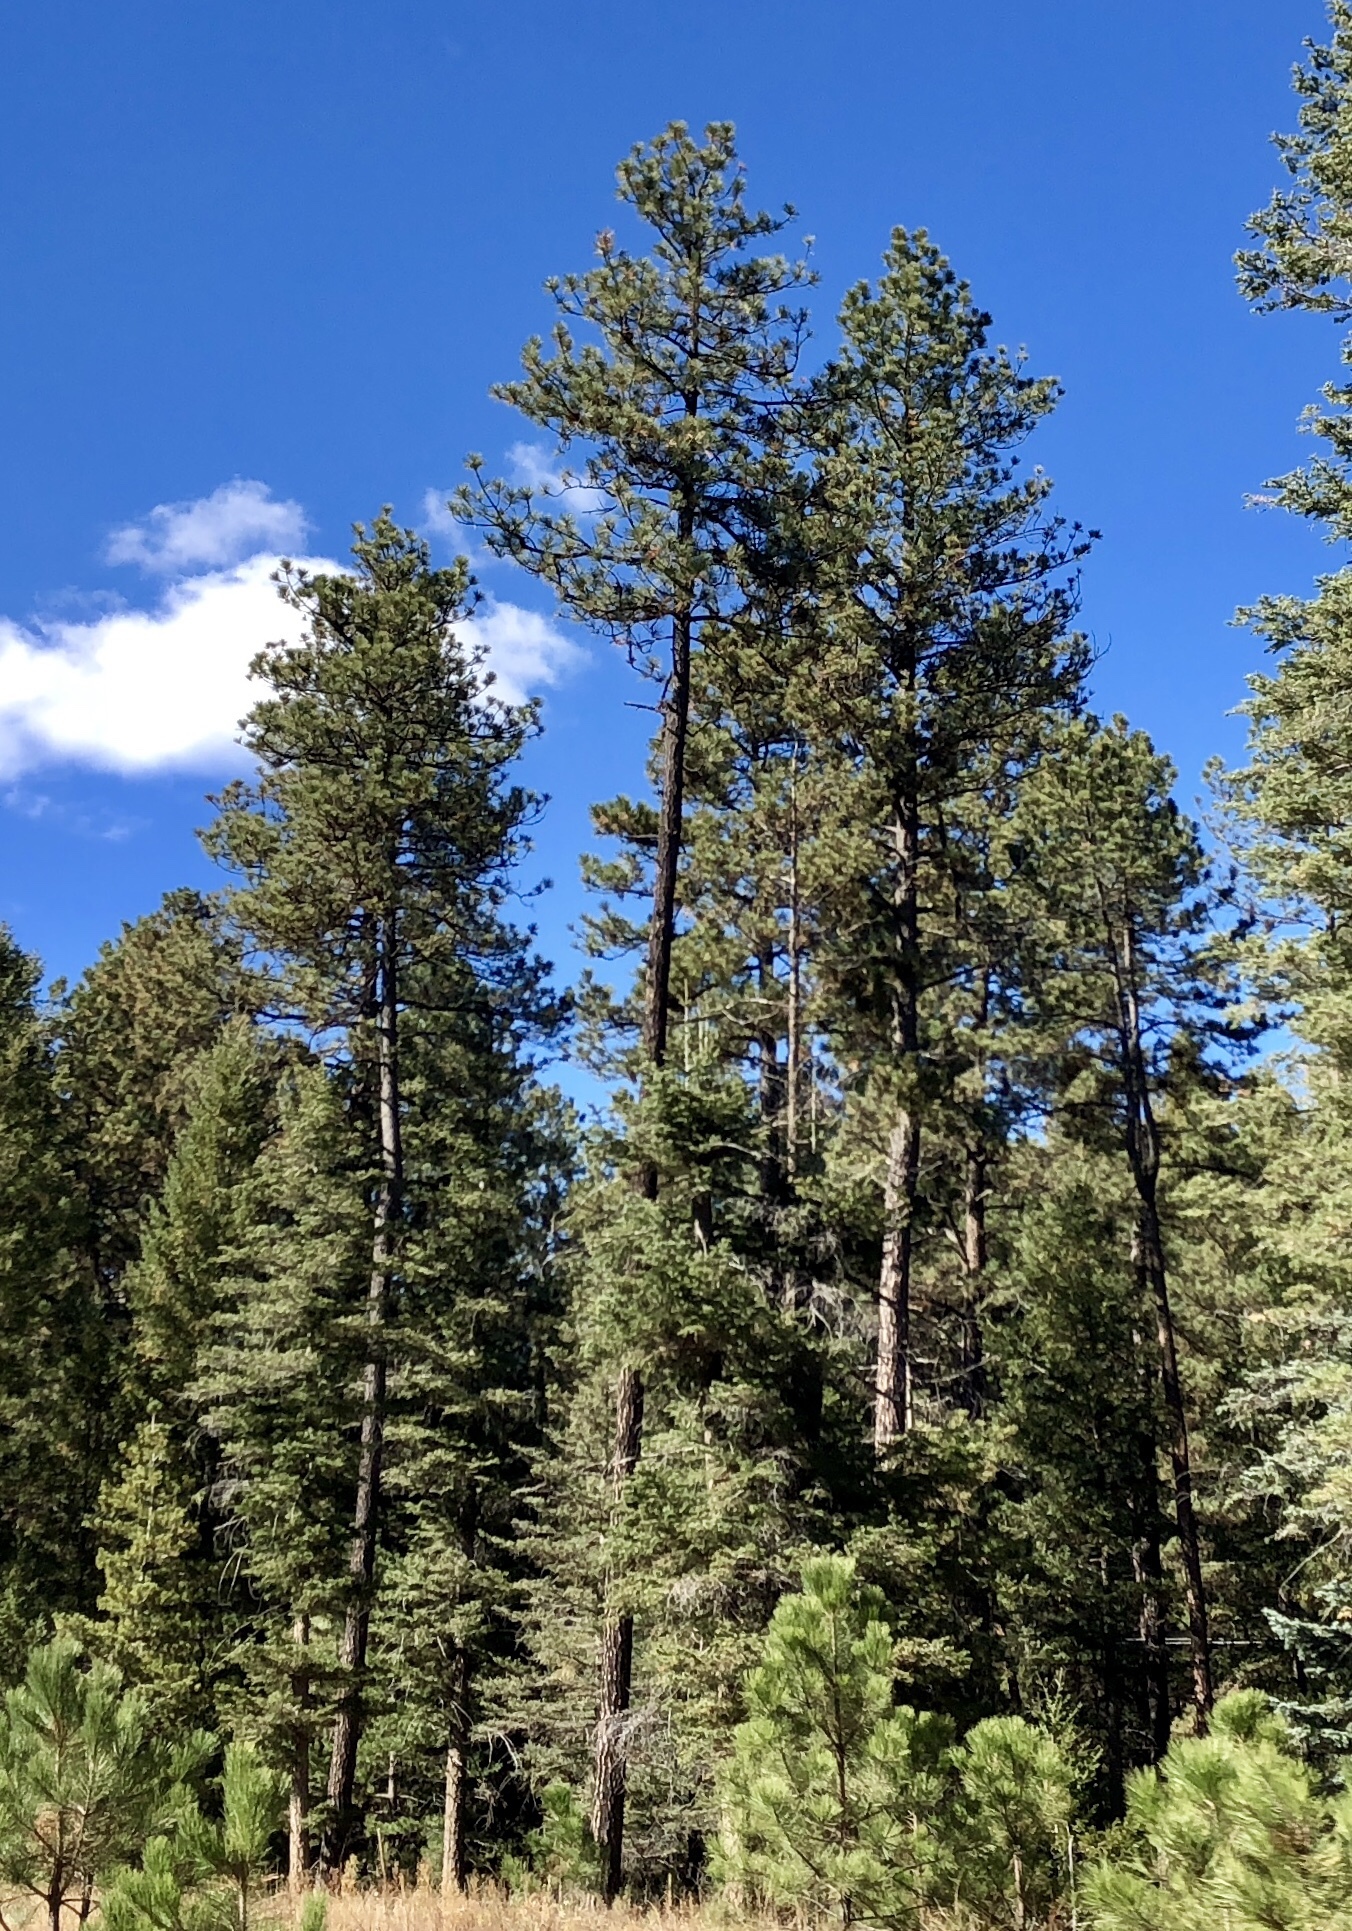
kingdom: Plantae
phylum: Tracheophyta
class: Pinopsida
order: Pinales
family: Pinaceae
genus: Pinus
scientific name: Pinus ponderosa
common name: Western yellow-pine
